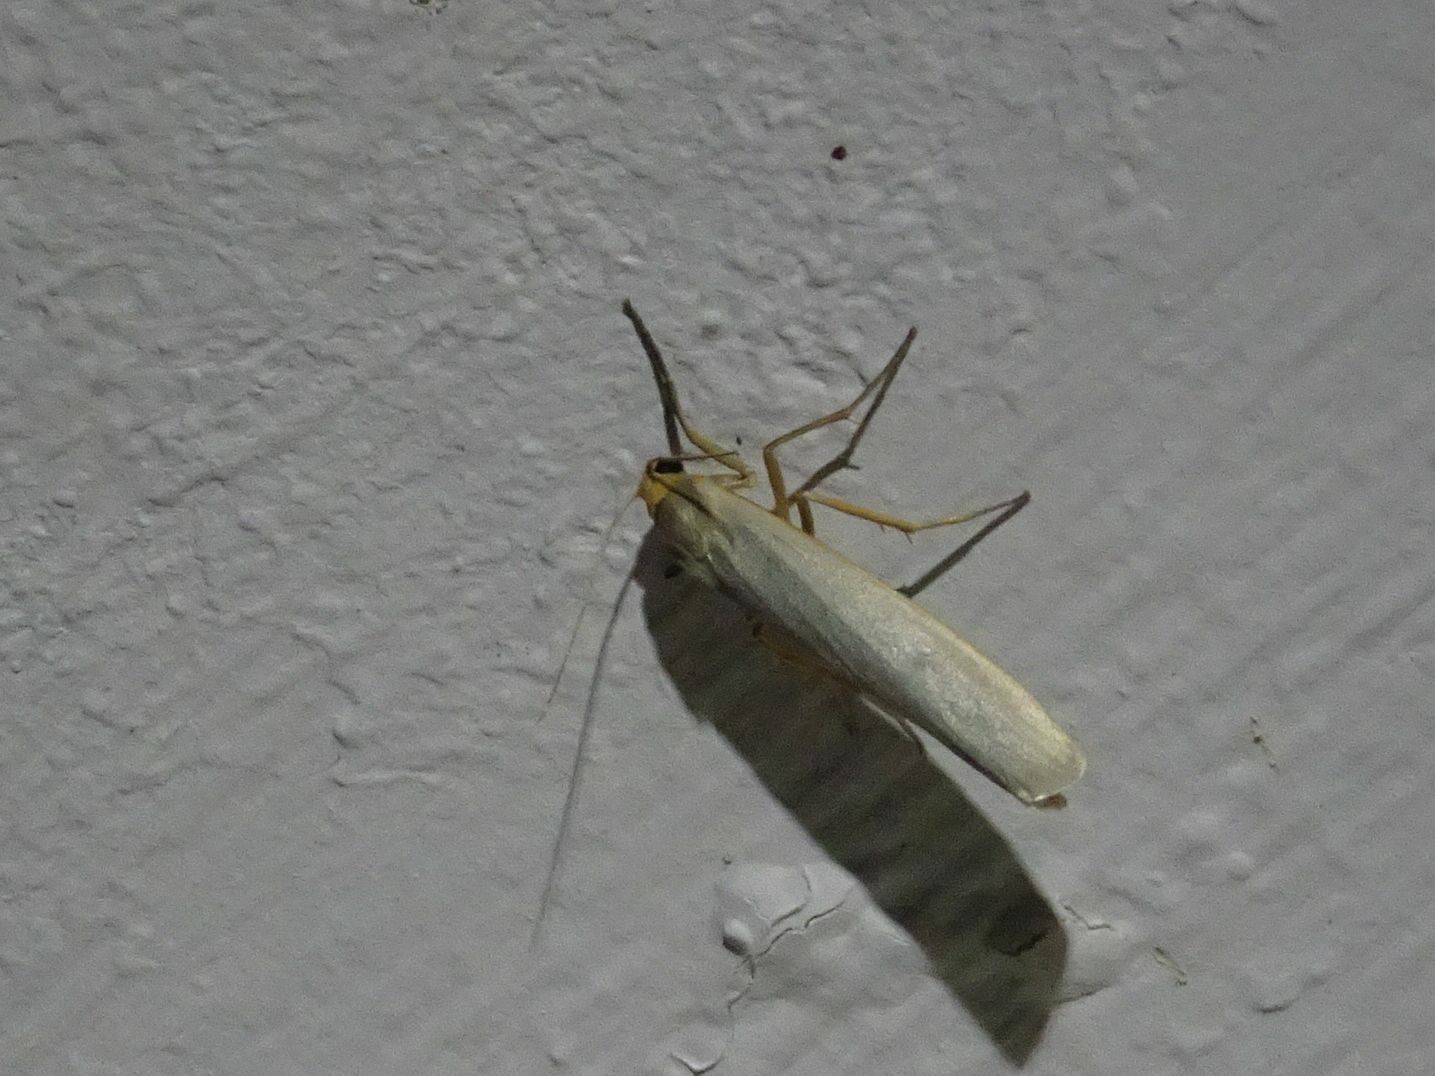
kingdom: Animalia
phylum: Arthropoda
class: Insecta
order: Lepidoptera
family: Erebidae
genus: Eilema
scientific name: Eilema caniola
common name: Hoary footman
